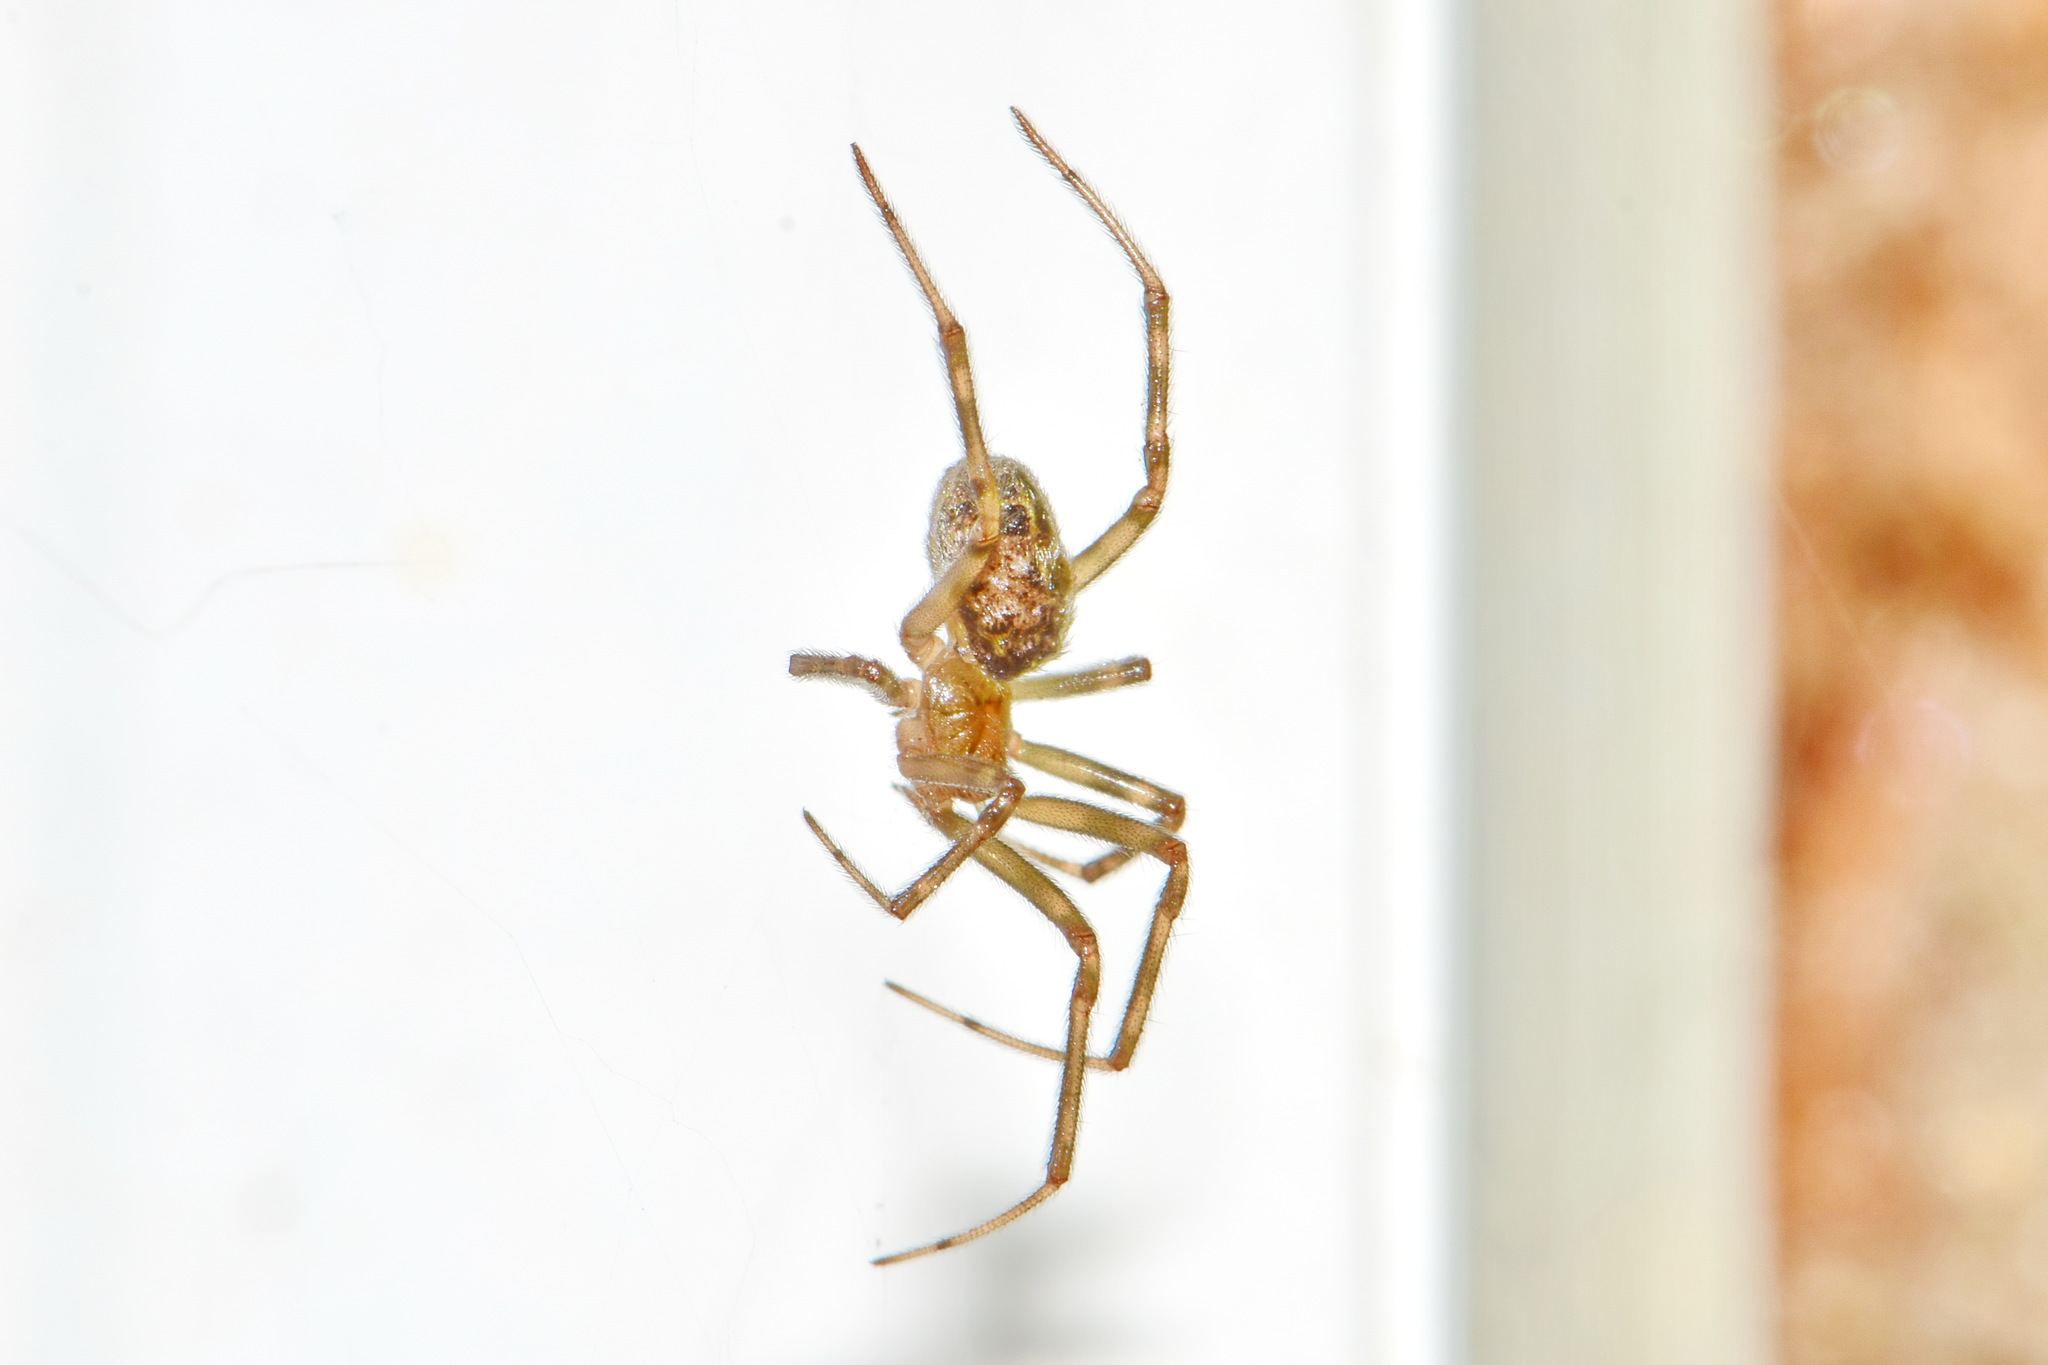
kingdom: Animalia
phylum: Arthropoda
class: Arachnida
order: Araneae
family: Theridiidae
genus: Steatoda
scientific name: Steatoda castanea
